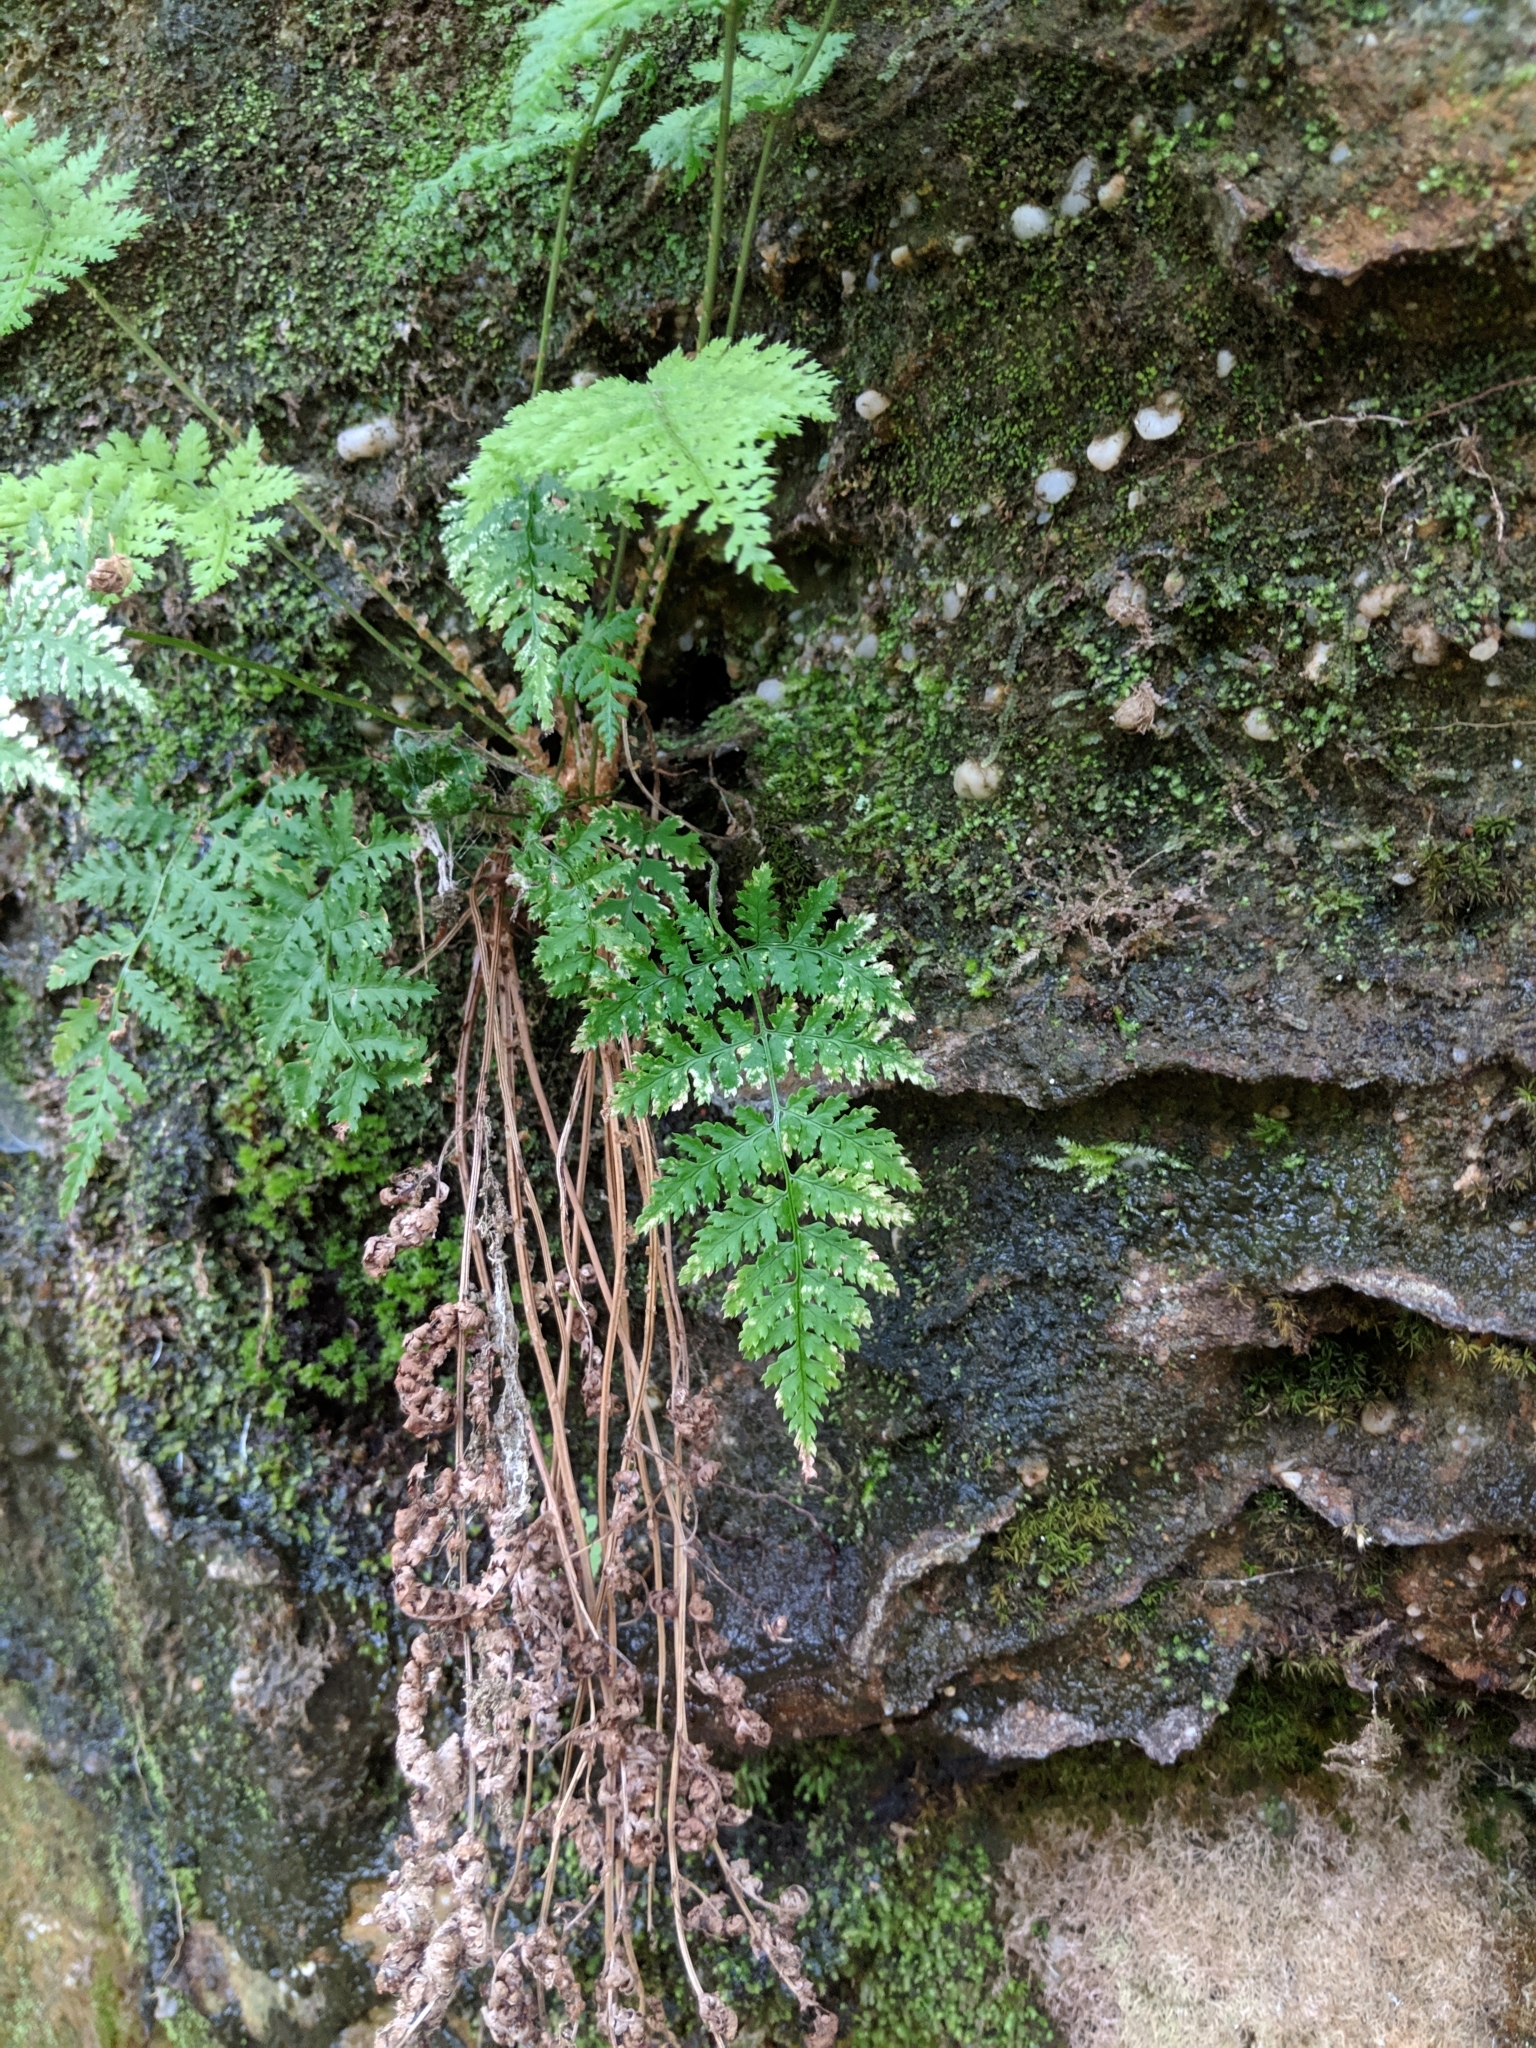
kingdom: Plantae
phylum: Tracheophyta
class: Polypodiopsida
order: Polypodiales
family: Dryopteridaceae
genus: Dryopteris
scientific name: Dryopteris intermedia
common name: Evergreen wood fern
